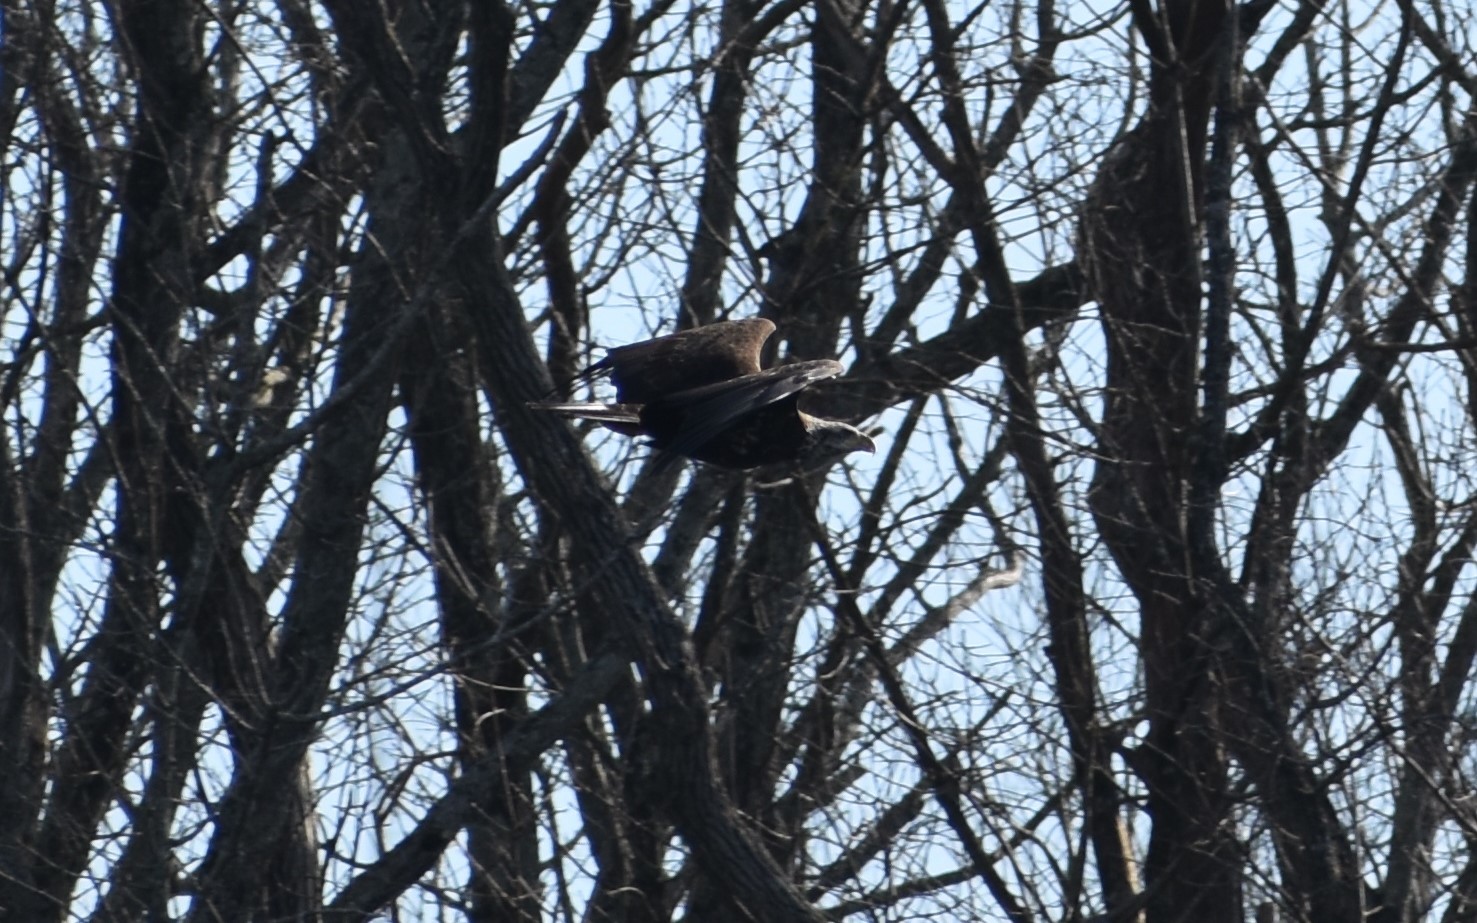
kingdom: Animalia
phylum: Chordata
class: Aves
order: Accipitriformes
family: Accipitridae
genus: Haliaeetus
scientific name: Haliaeetus leucocephalus
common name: Bald eagle
